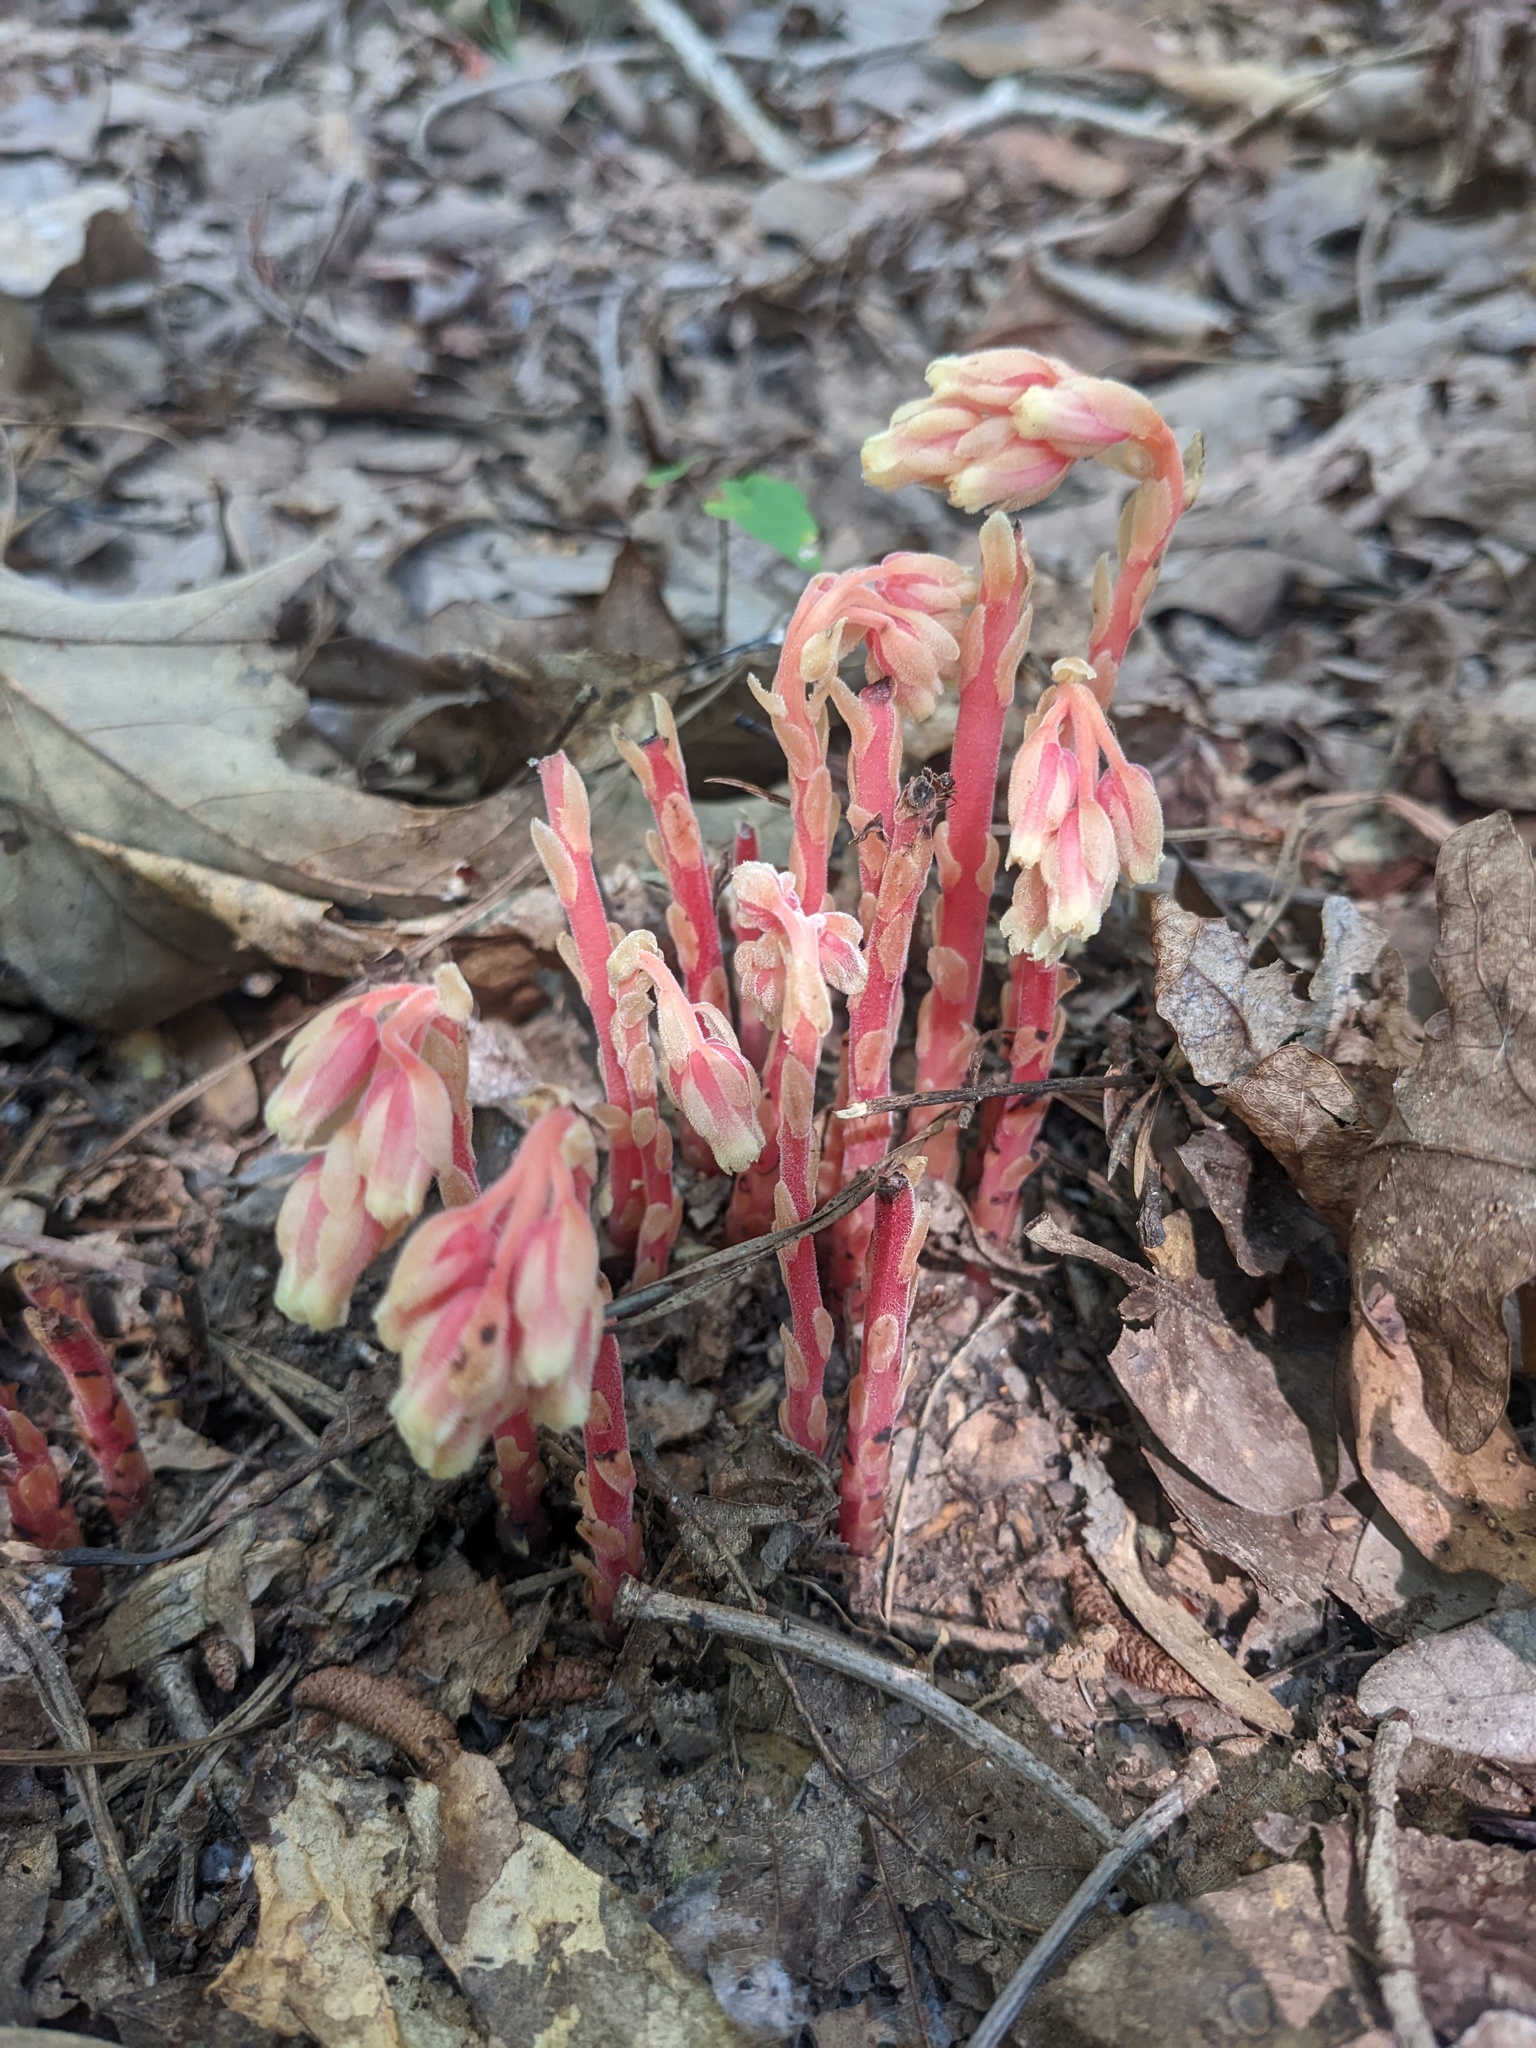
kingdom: Plantae
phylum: Tracheophyta
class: Magnoliopsida
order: Ericales
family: Ericaceae
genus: Hypopitys
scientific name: Hypopitys monotropa
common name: Yellow bird's-nest
